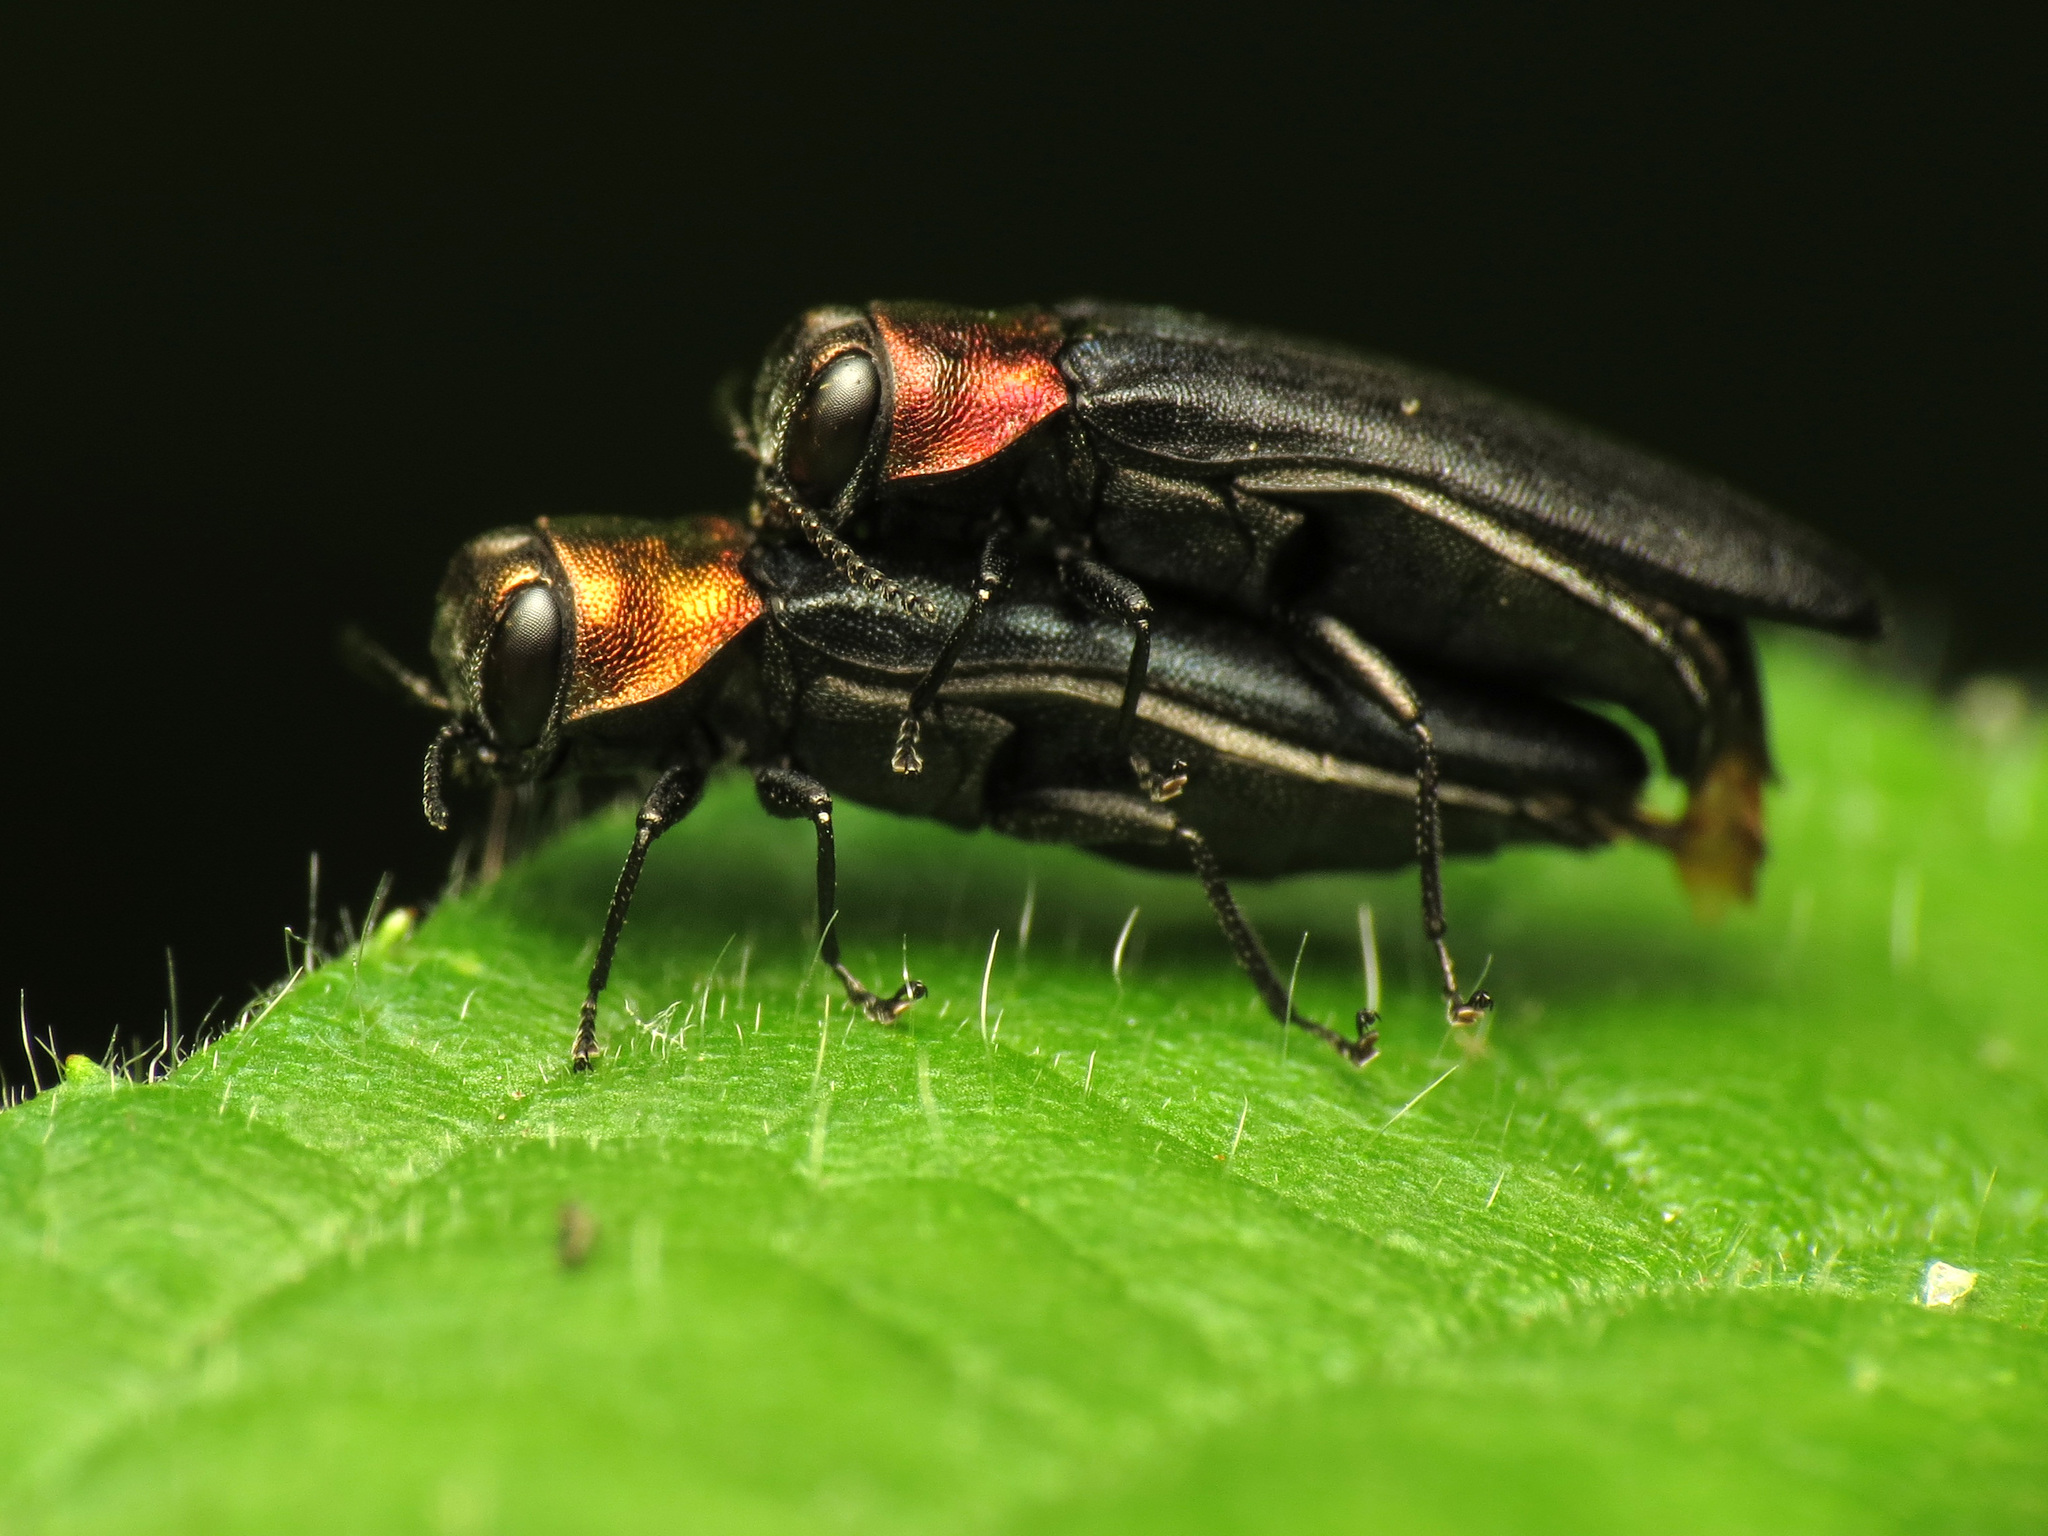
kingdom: Animalia
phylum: Arthropoda
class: Insecta
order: Coleoptera
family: Buprestidae
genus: Agrilus
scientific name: Agrilus ruficollis
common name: Red-necked cane borer beetle
